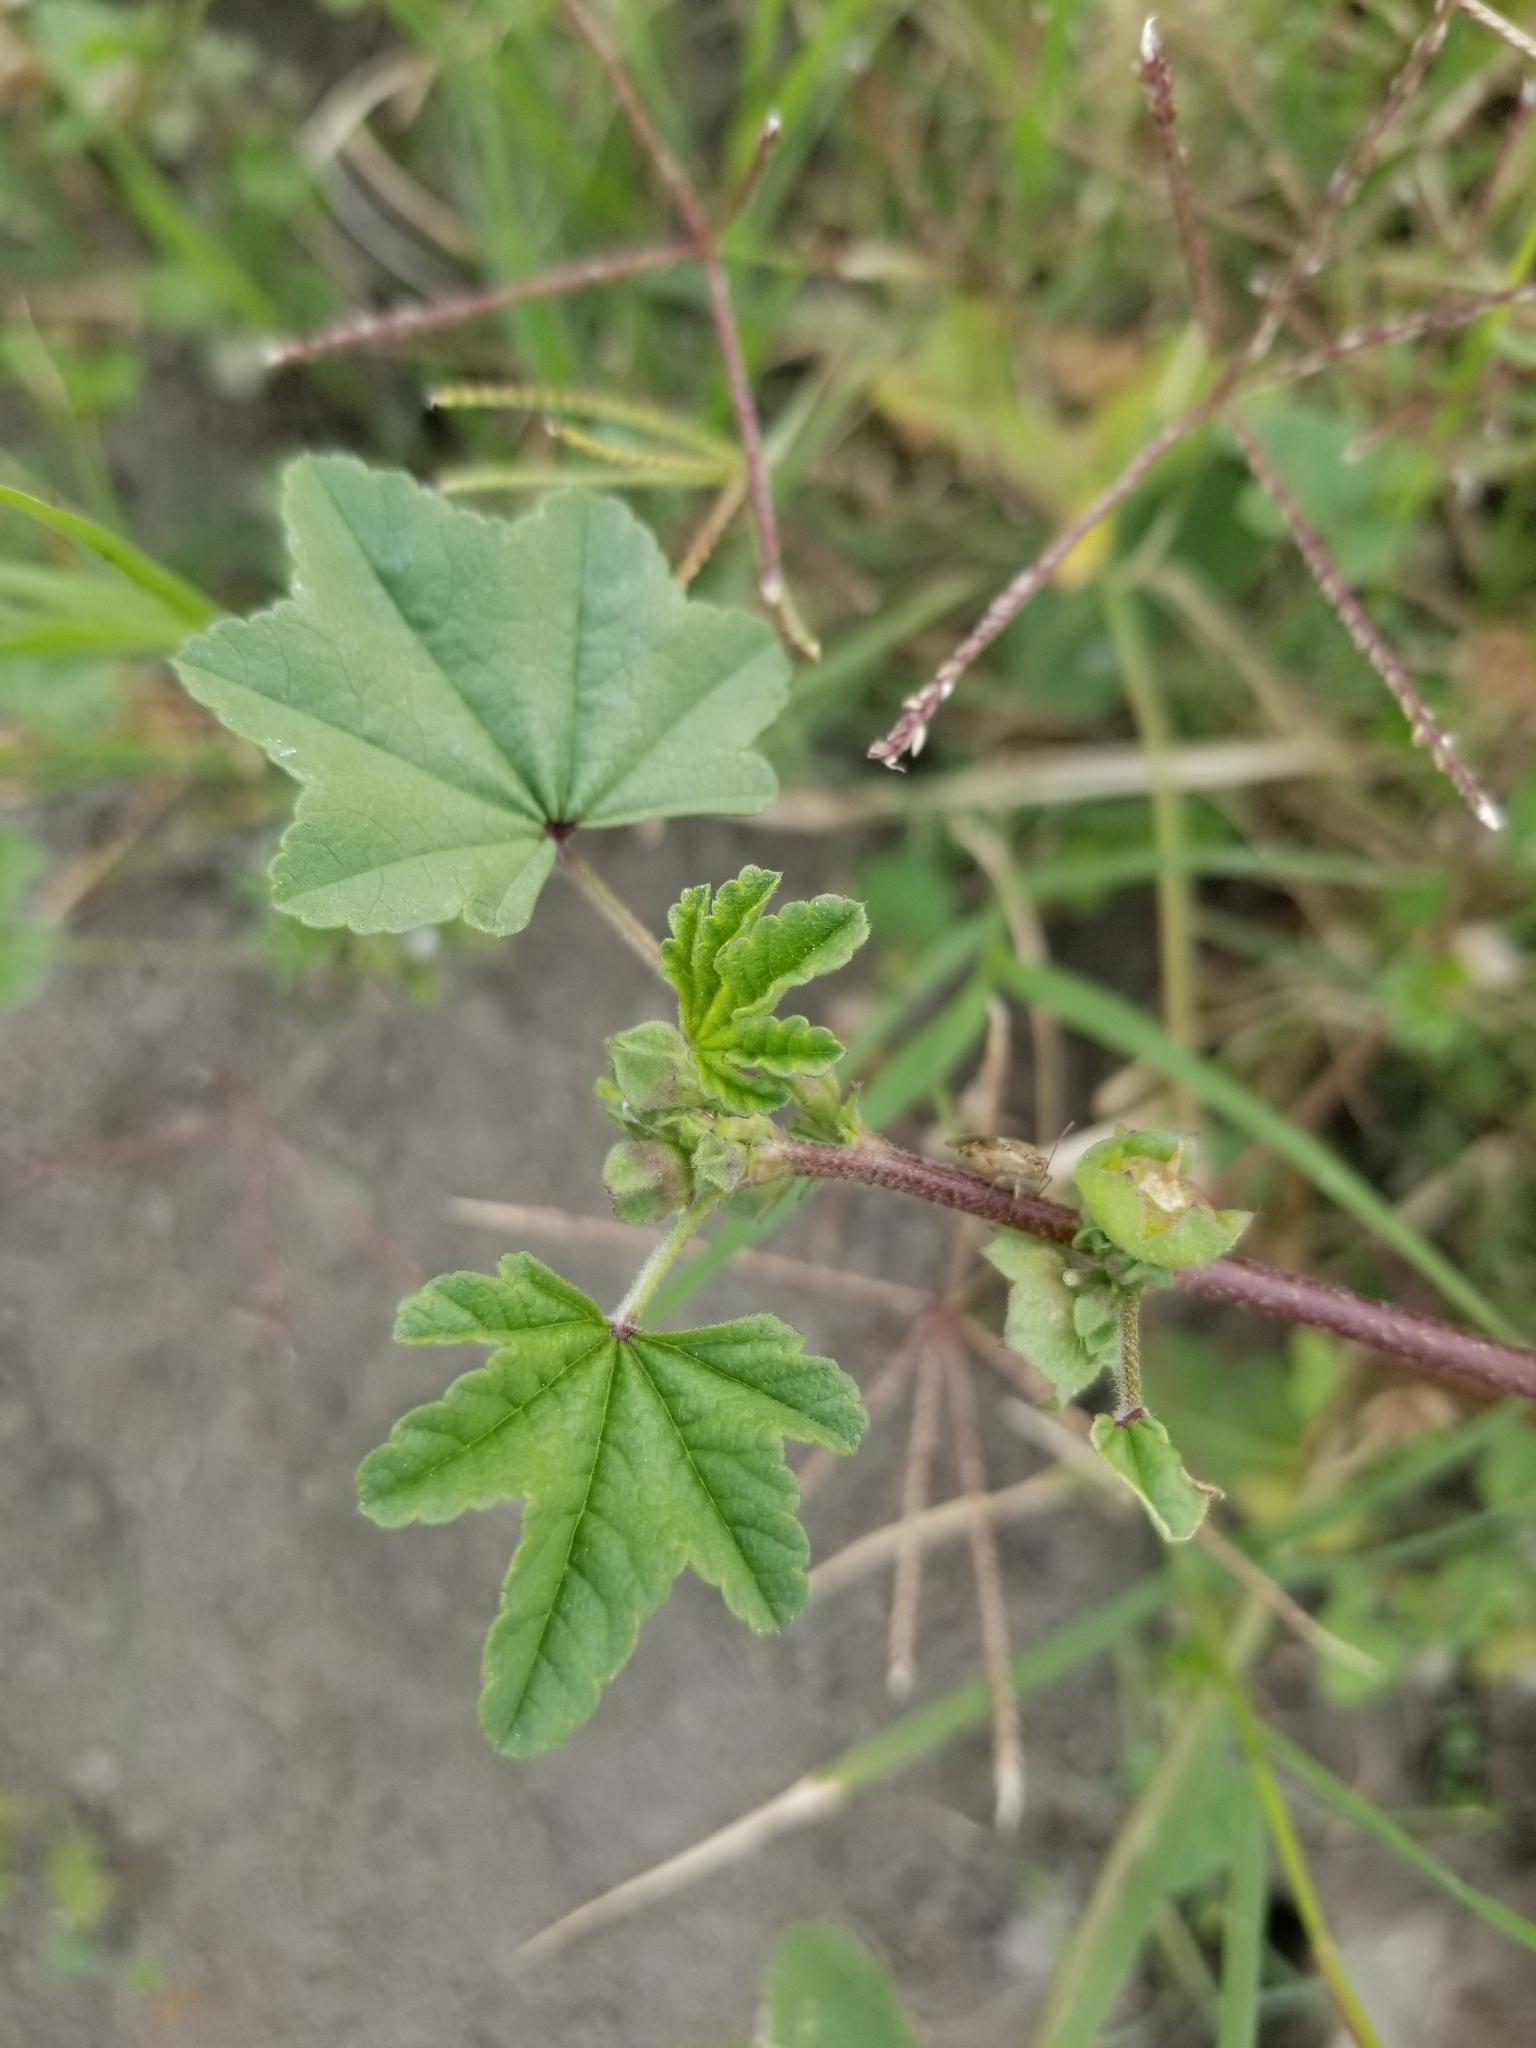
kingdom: Plantae
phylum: Tracheophyta
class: Magnoliopsida
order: Malvales
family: Malvaceae
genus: Malva
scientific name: Malva parviflora
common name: Least mallow
